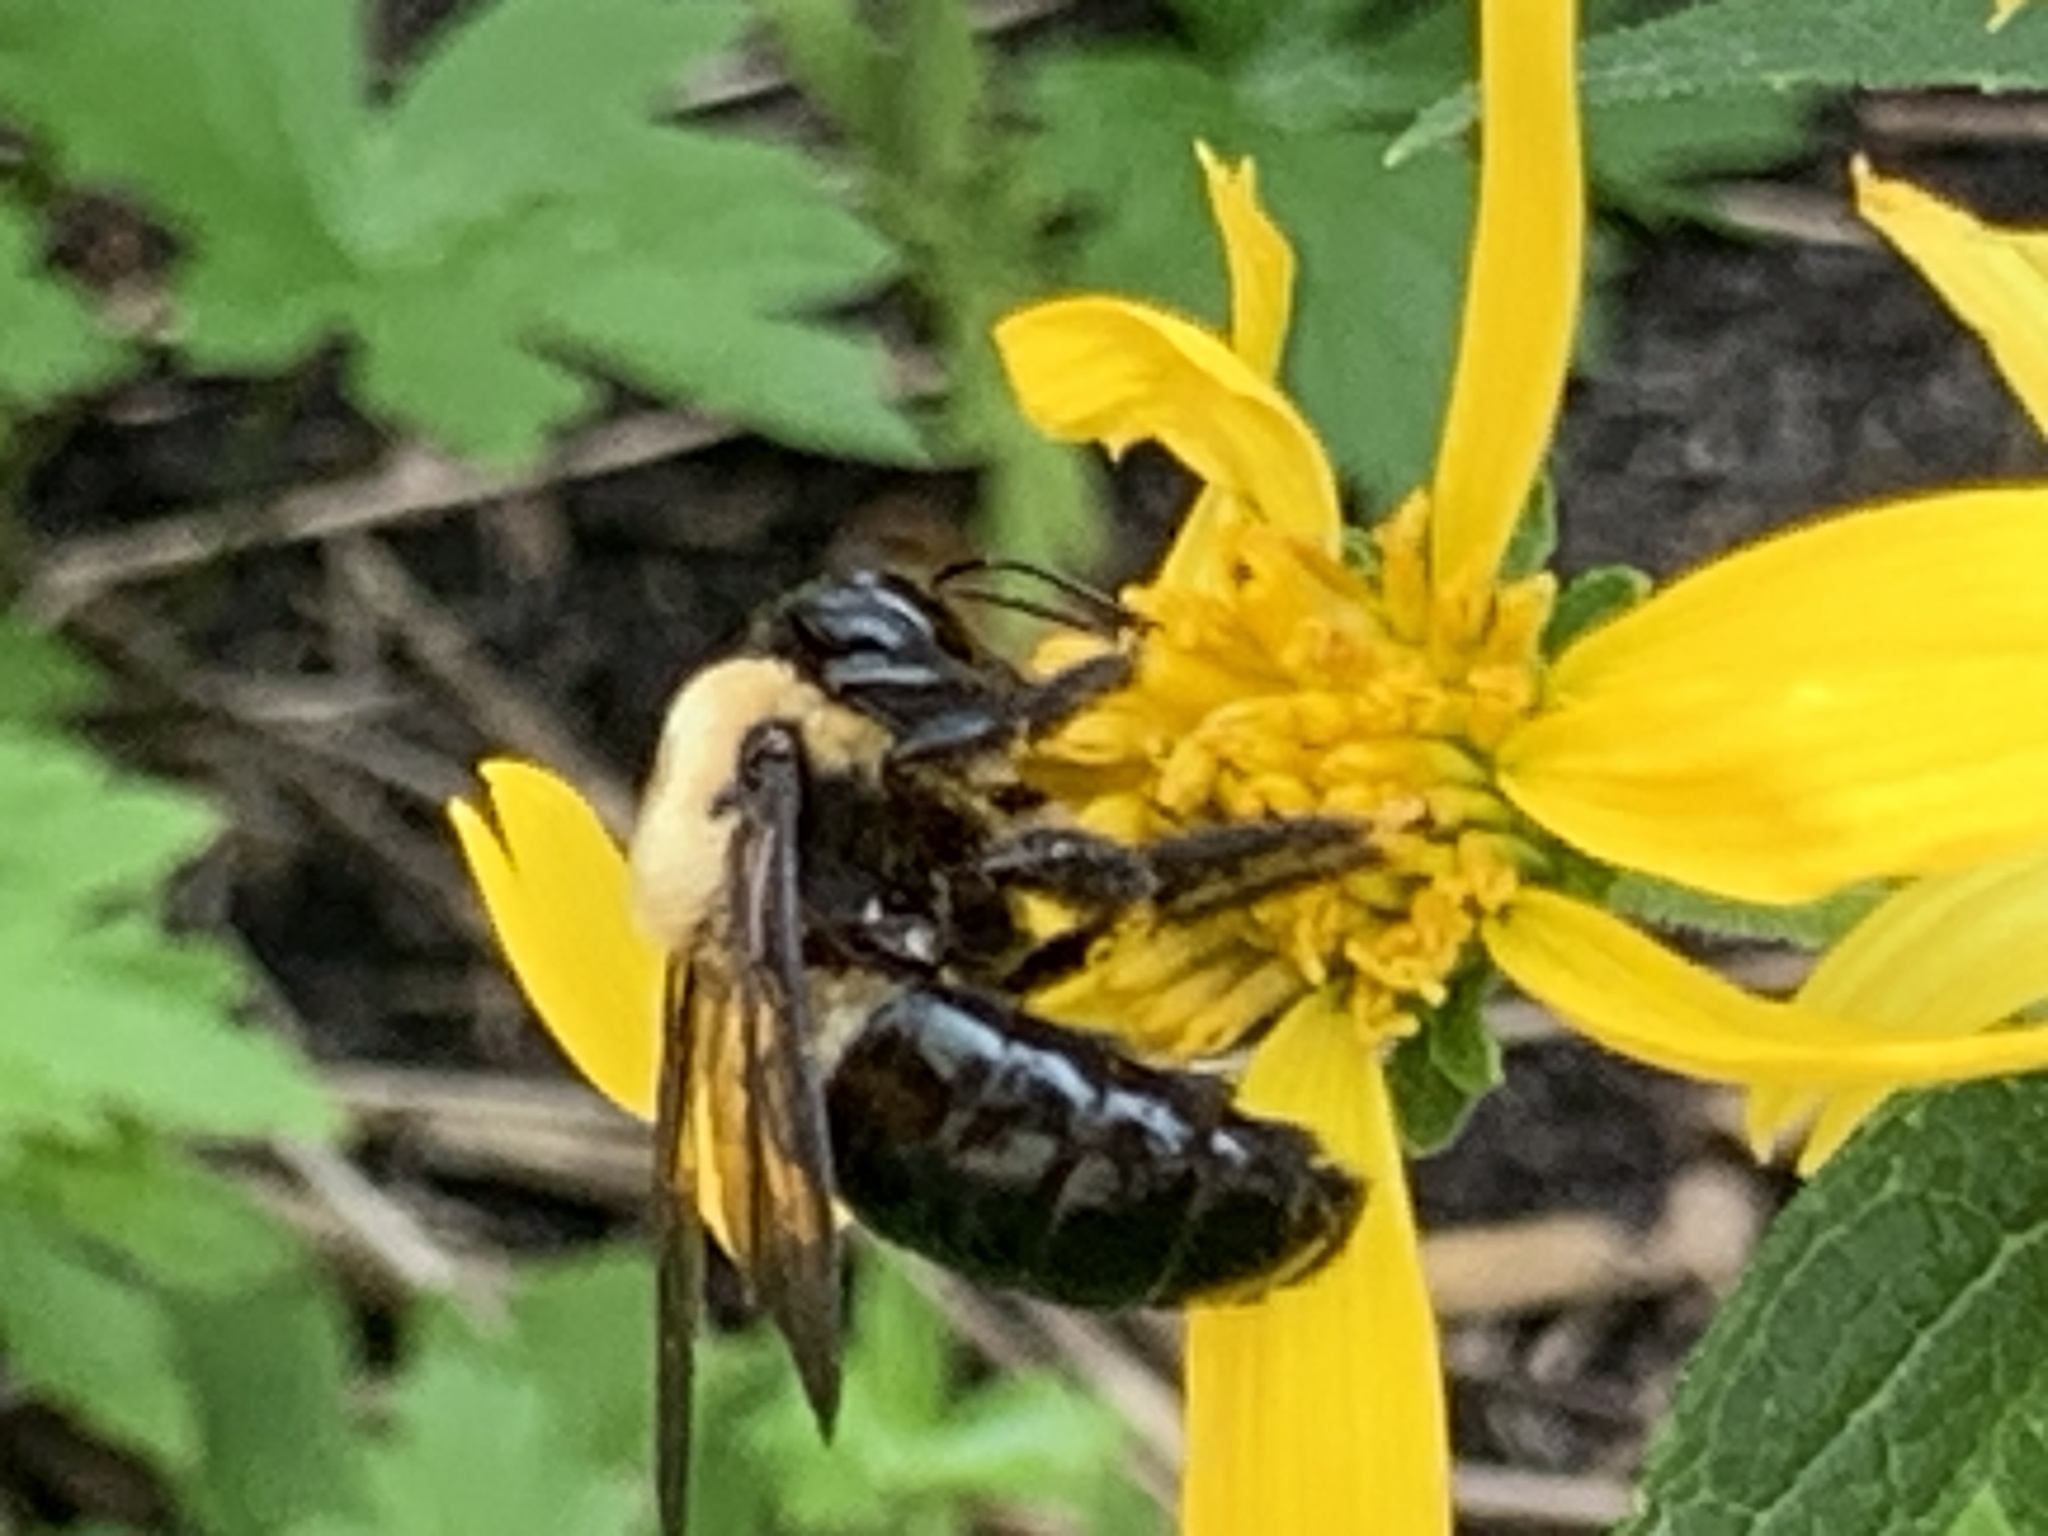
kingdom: Animalia
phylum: Arthropoda
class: Insecta
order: Hymenoptera
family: Apidae
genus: Xylocopa
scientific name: Xylocopa virginica
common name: Carpenter bee
